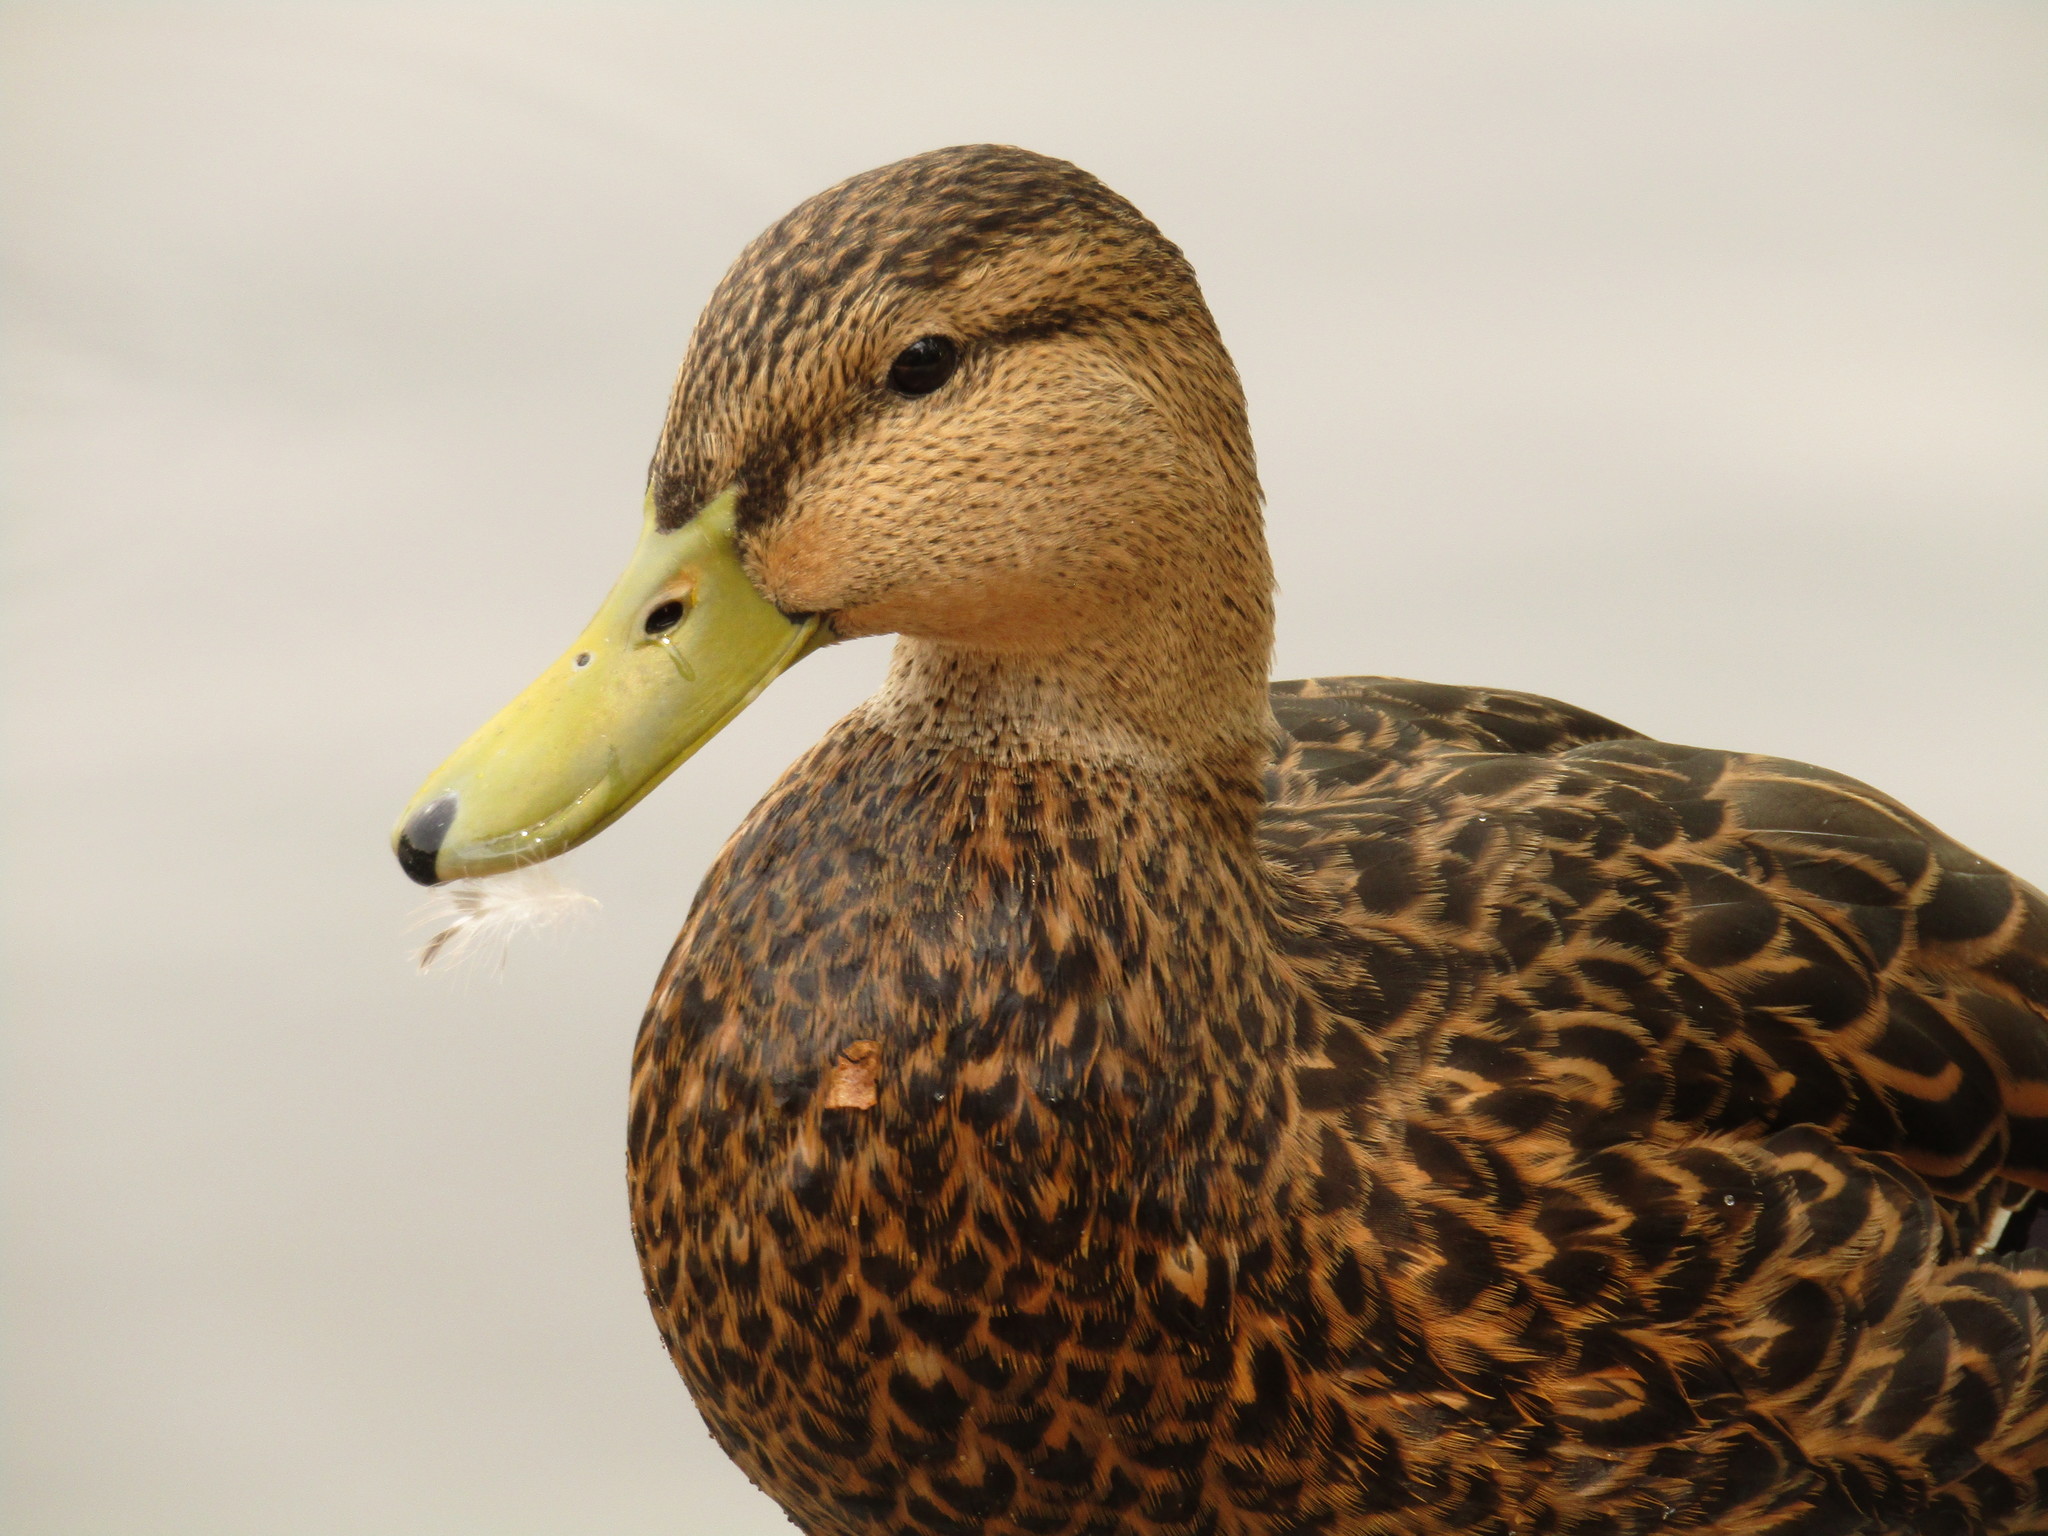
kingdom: Animalia
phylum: Chordata
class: Aves
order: Anseriformes
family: Anatidae
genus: Anas
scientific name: Anas diazi
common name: Mexican duck
